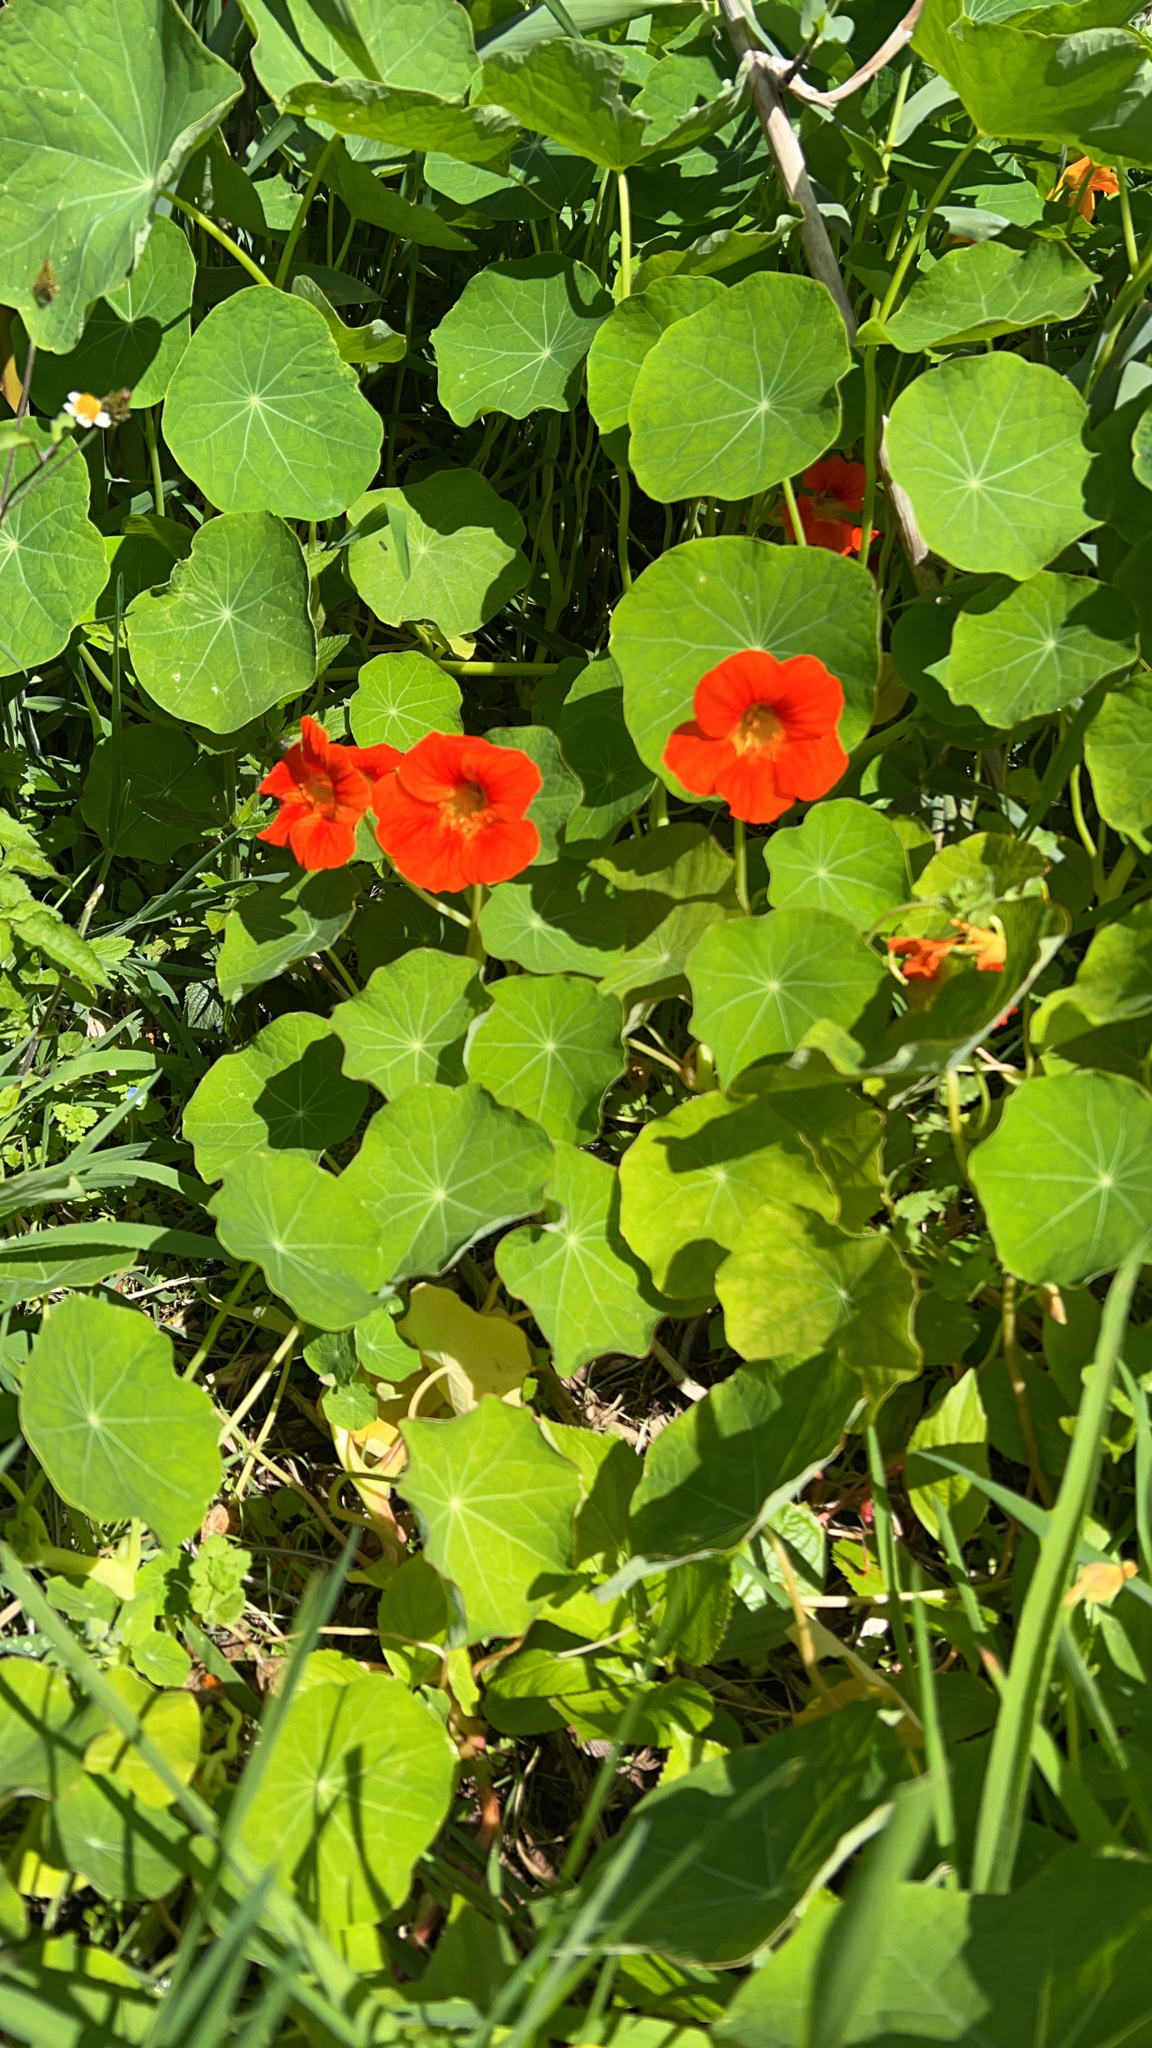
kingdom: Plantae
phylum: Tracheophyta
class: Magnoliopsida
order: Brassicales
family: Tropaeolaceae
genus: Tropaeolum
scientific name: Tropaeolum majus
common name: Nasturtium
